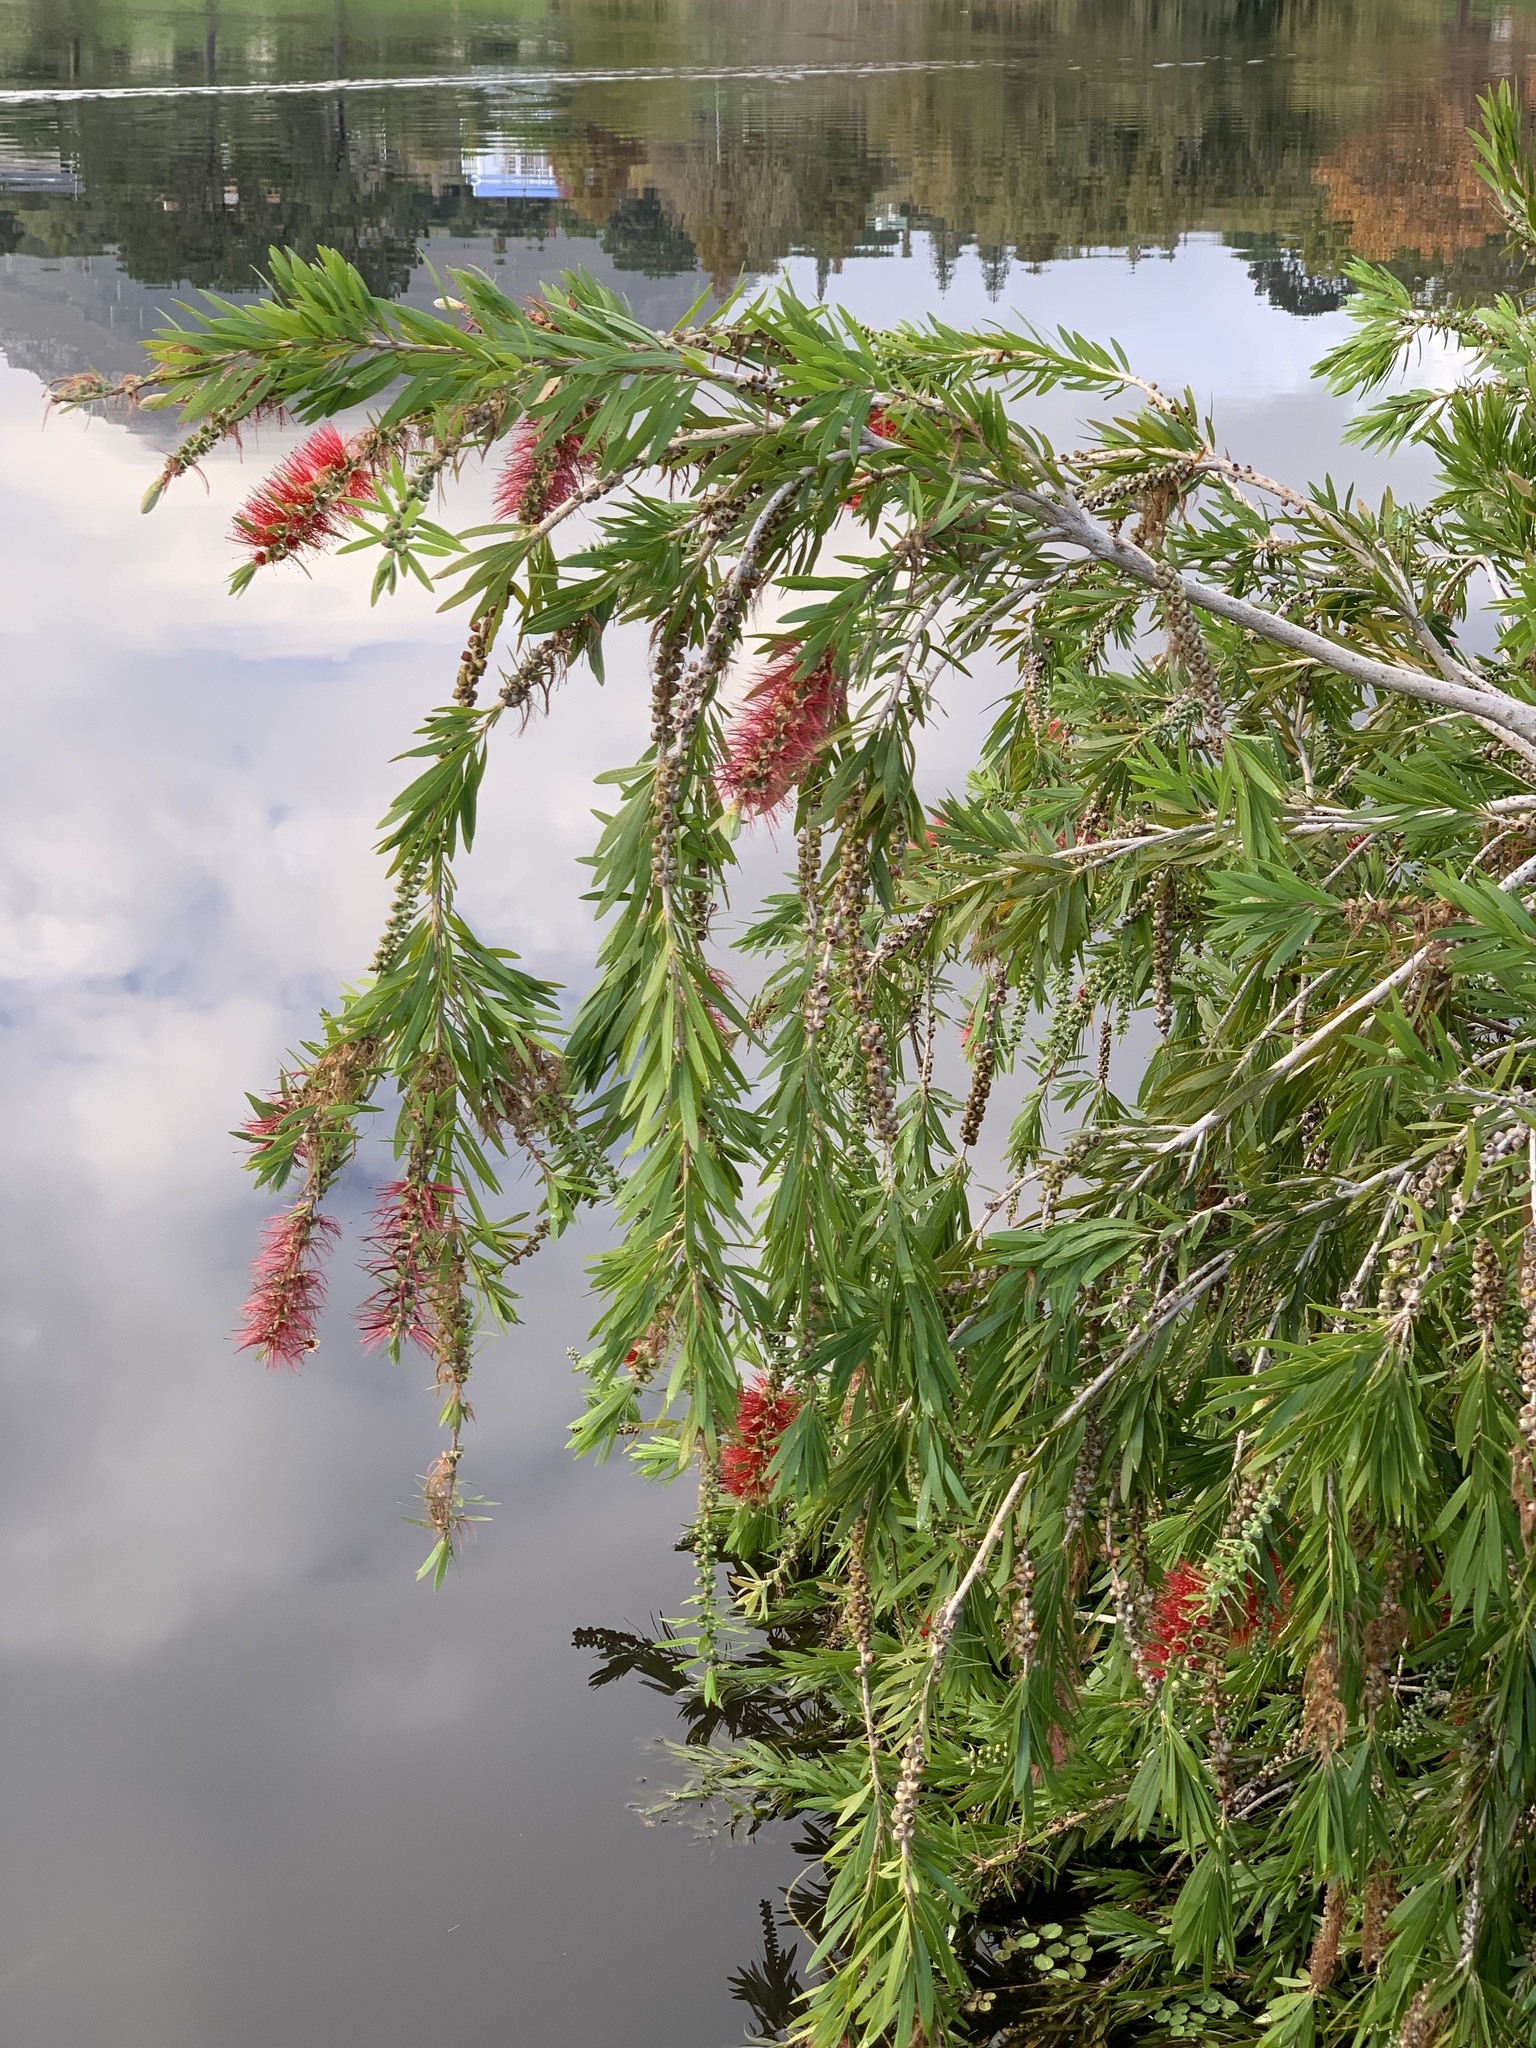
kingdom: Plantae
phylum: Tracheophyta
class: Magnoliopsida
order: Myrtales
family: Myrtaceae
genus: Callistemon
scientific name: Callistemon viminalis
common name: Drooping bottlebrush
